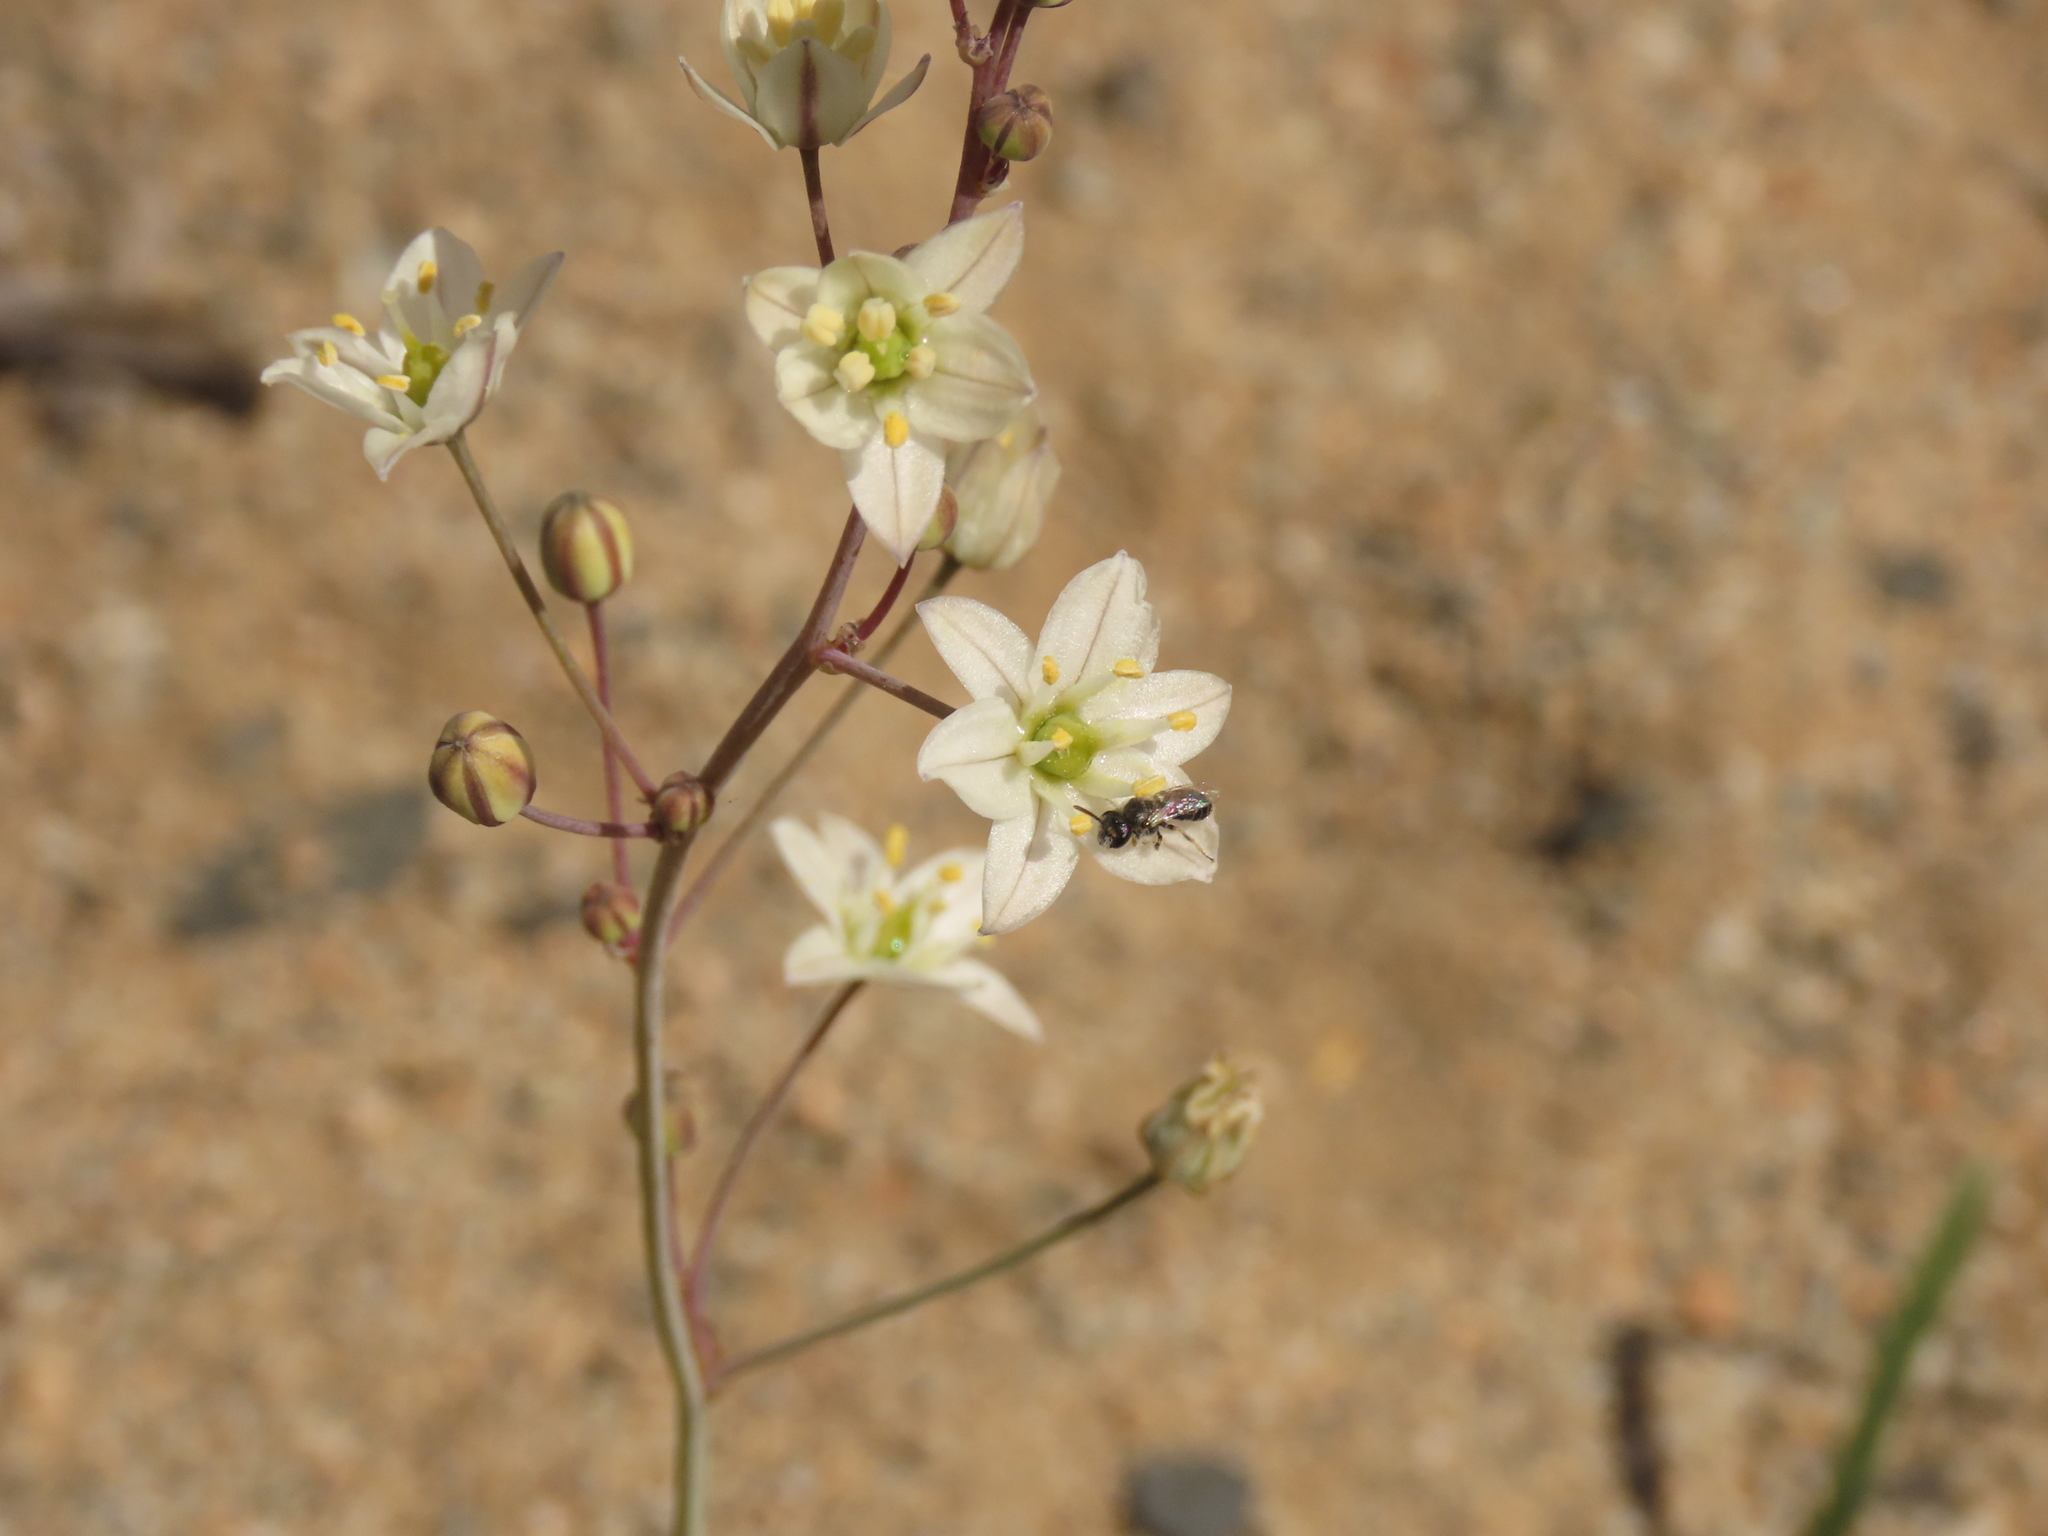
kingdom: Plantae
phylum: Tracheophyta
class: Liliopsida
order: Asparagales
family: Asparagaceae
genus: Oziroe
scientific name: Oziroe biflora
